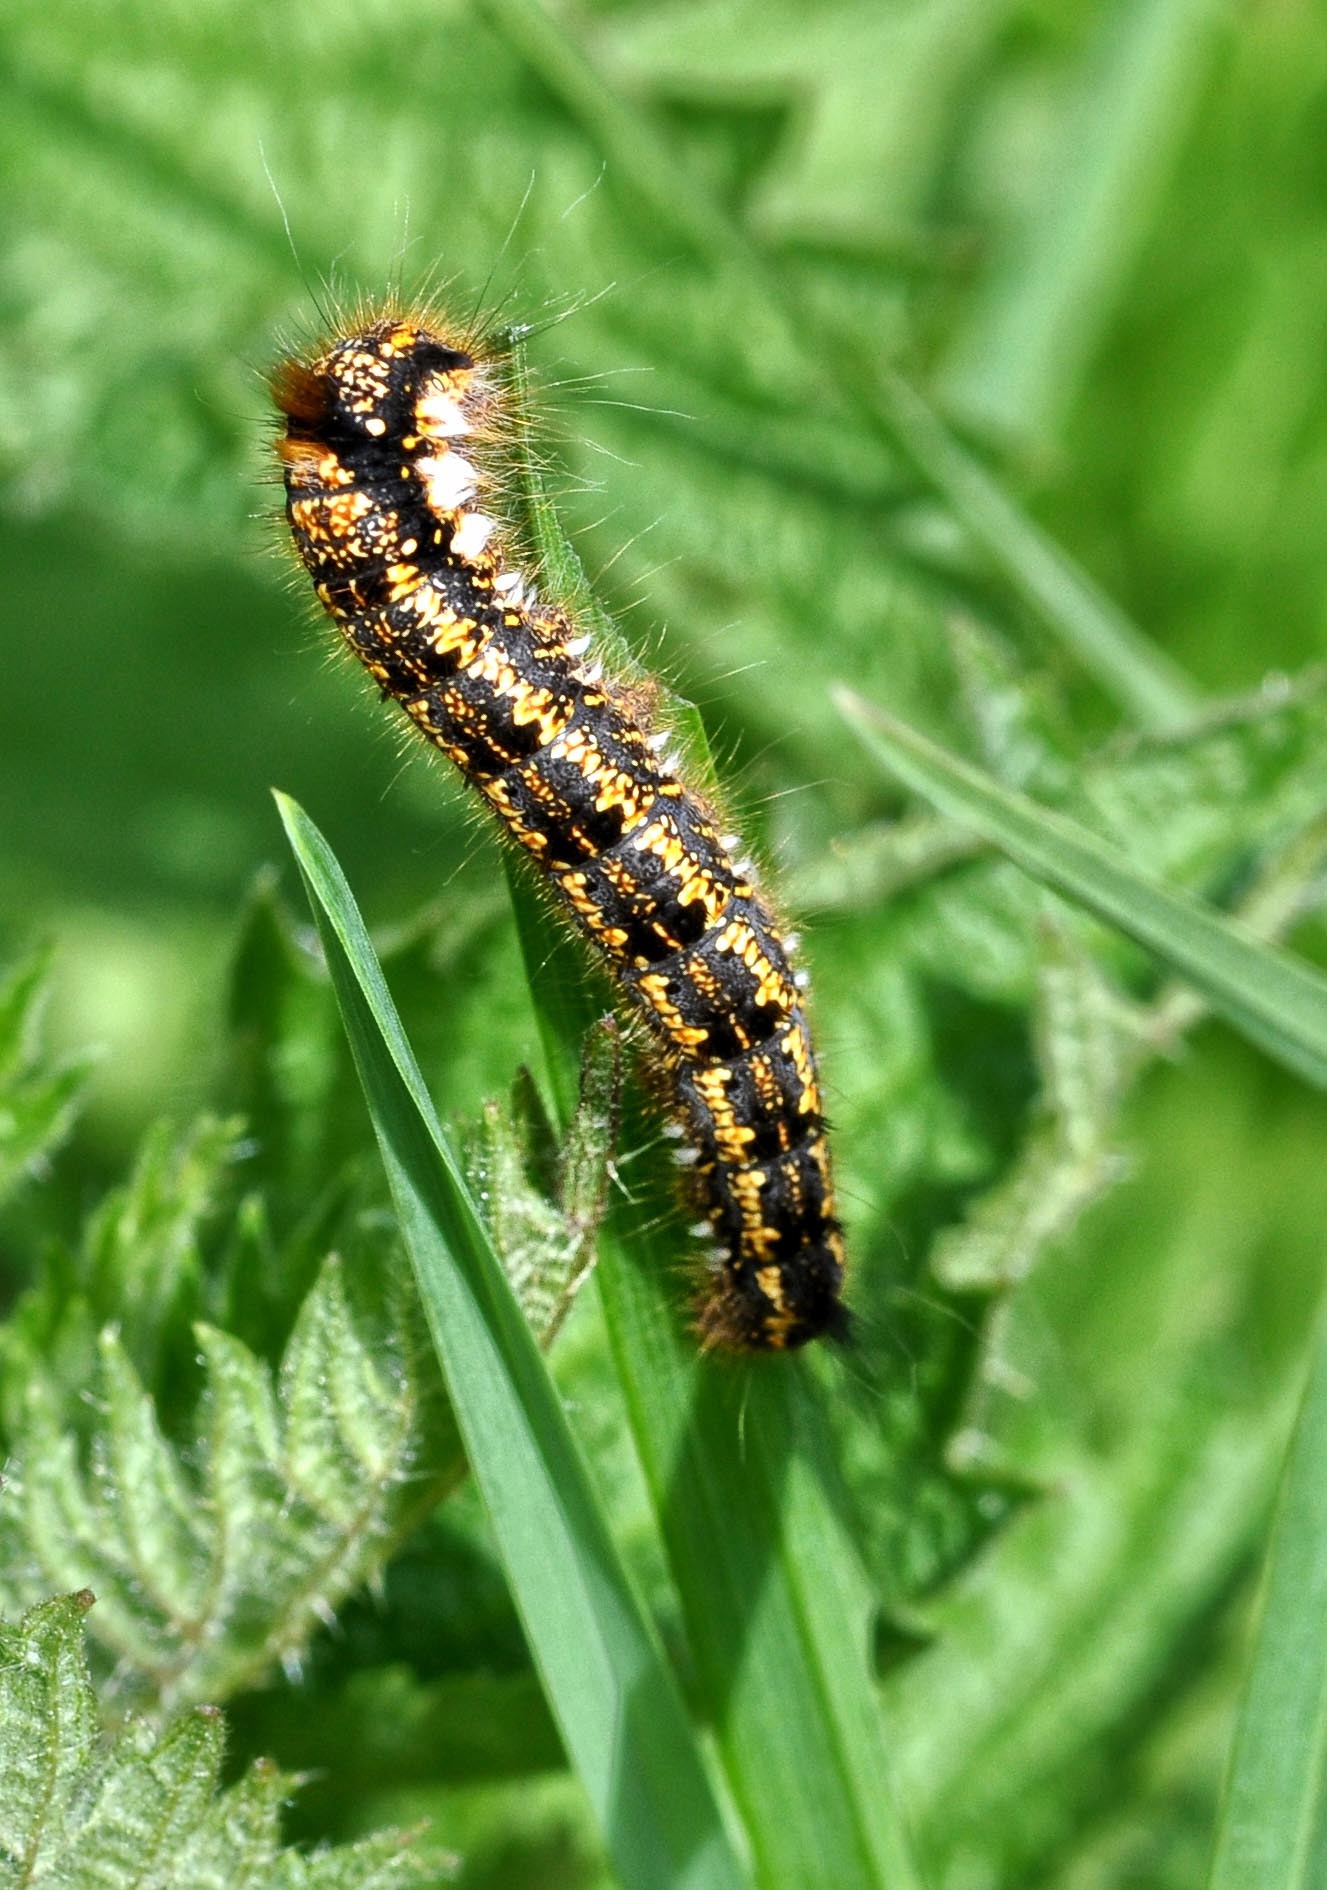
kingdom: Animalia
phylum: Arthropoda
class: Insecta
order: Lepidoptera
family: Lasiocampidae
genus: Euthrix
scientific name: Euthrix potatoria
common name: Drinker
